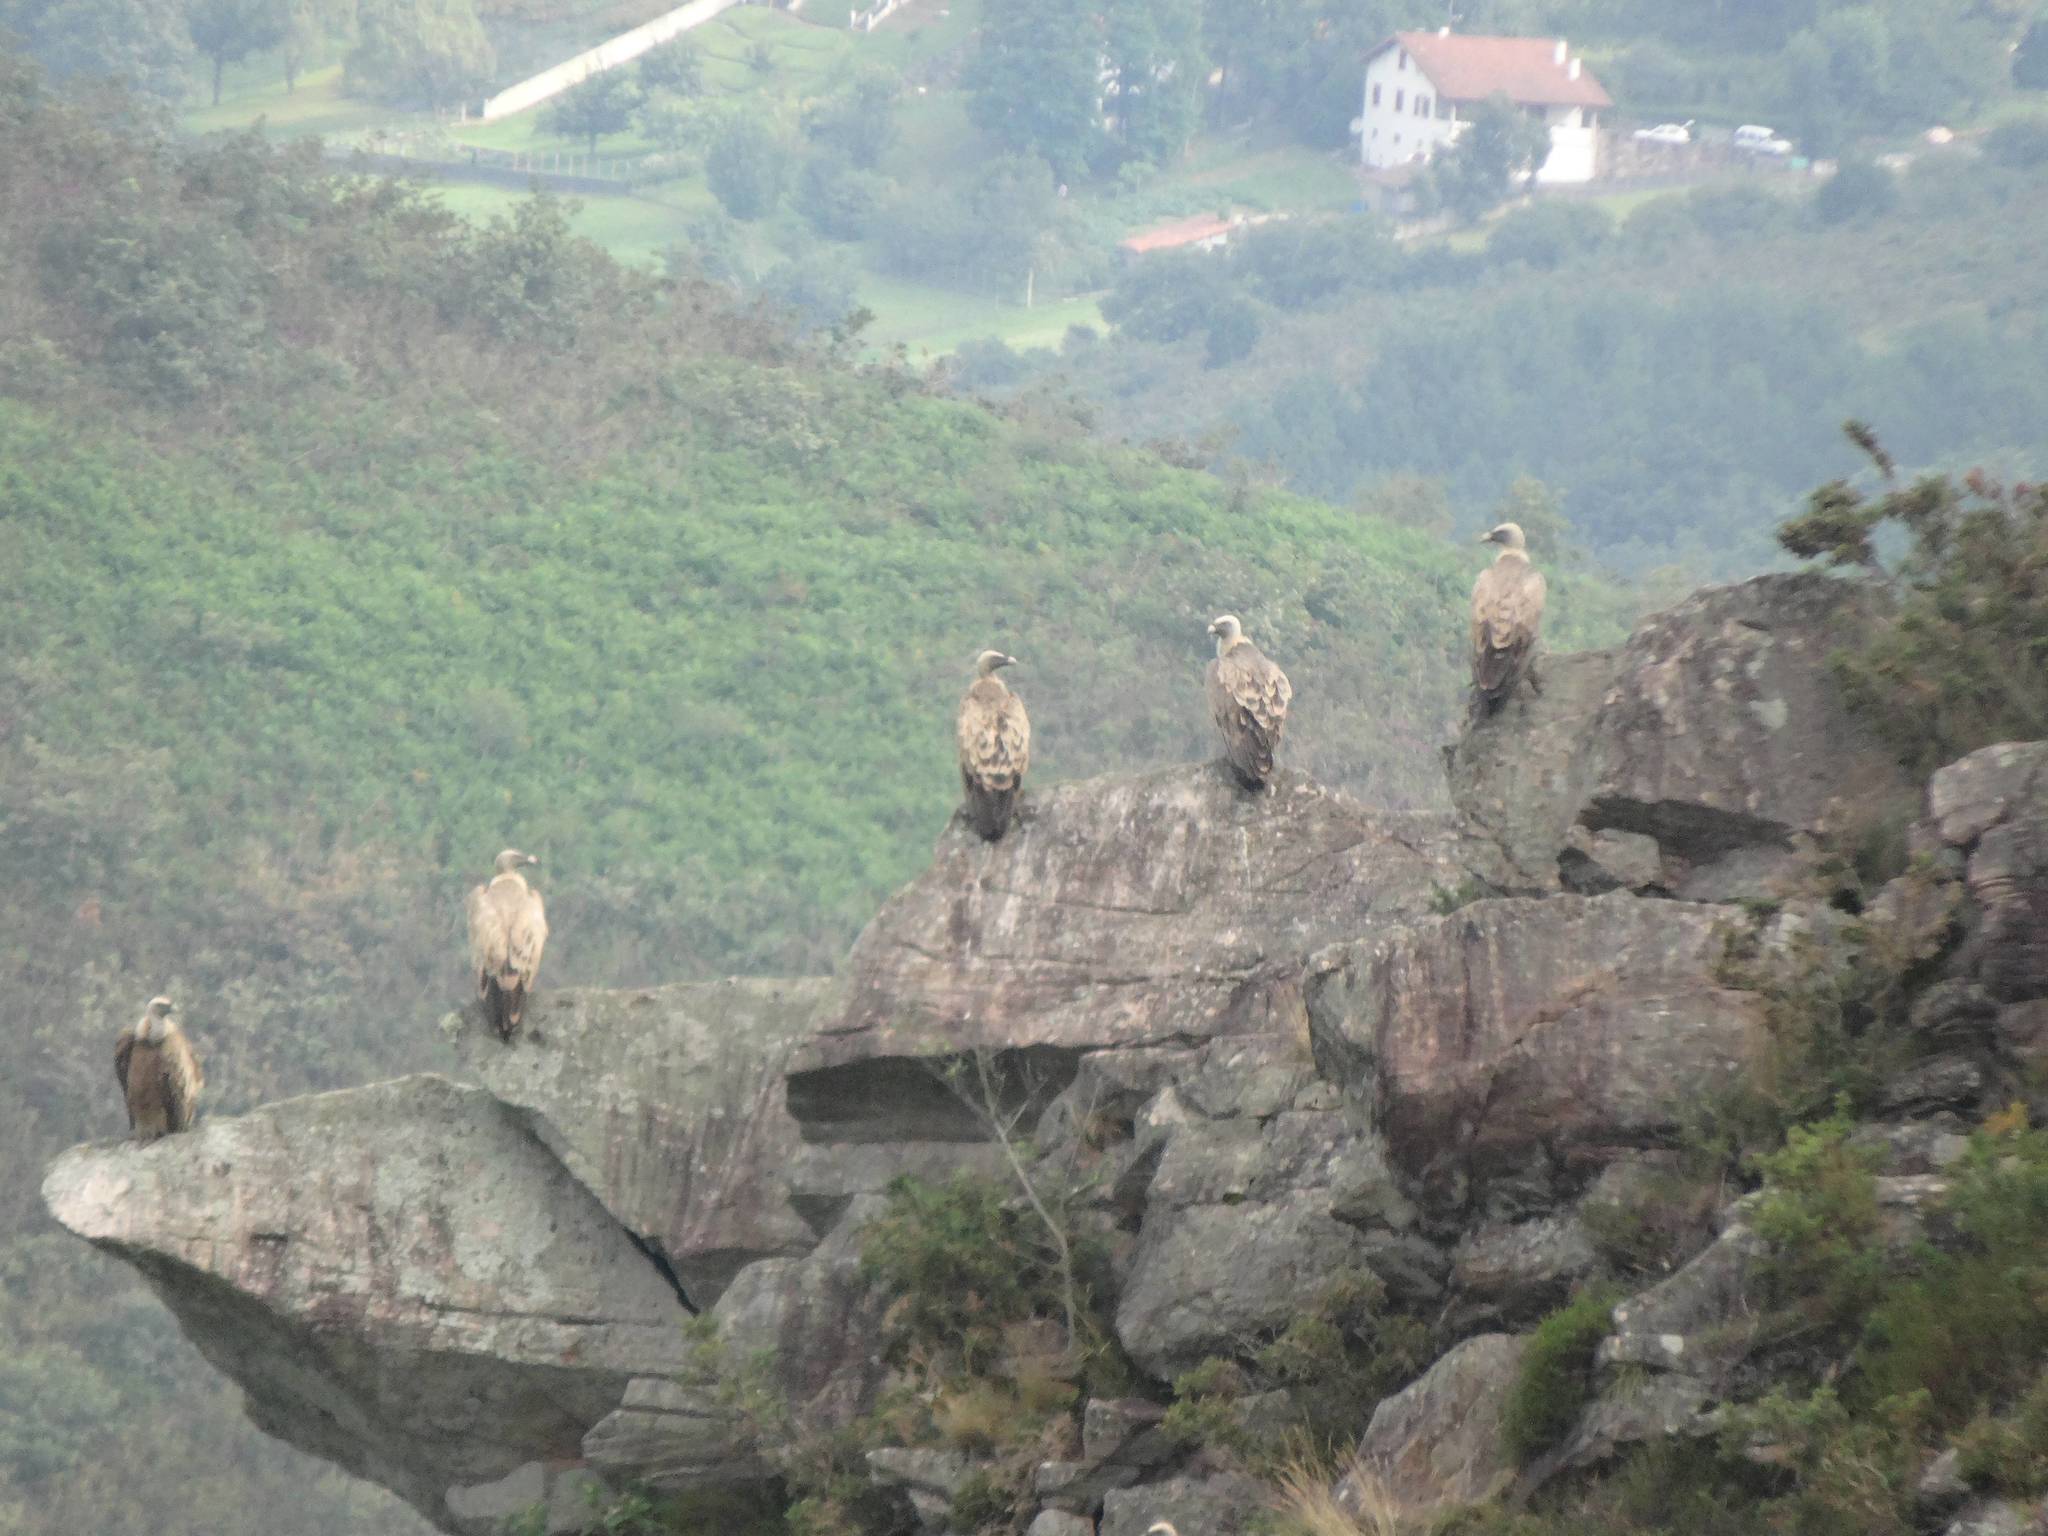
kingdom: Animalia
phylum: Chordata
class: Aves
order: Accipitriformes
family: Accipitridae
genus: Gyps
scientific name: Gyps fulvus
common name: Griffon vulture
